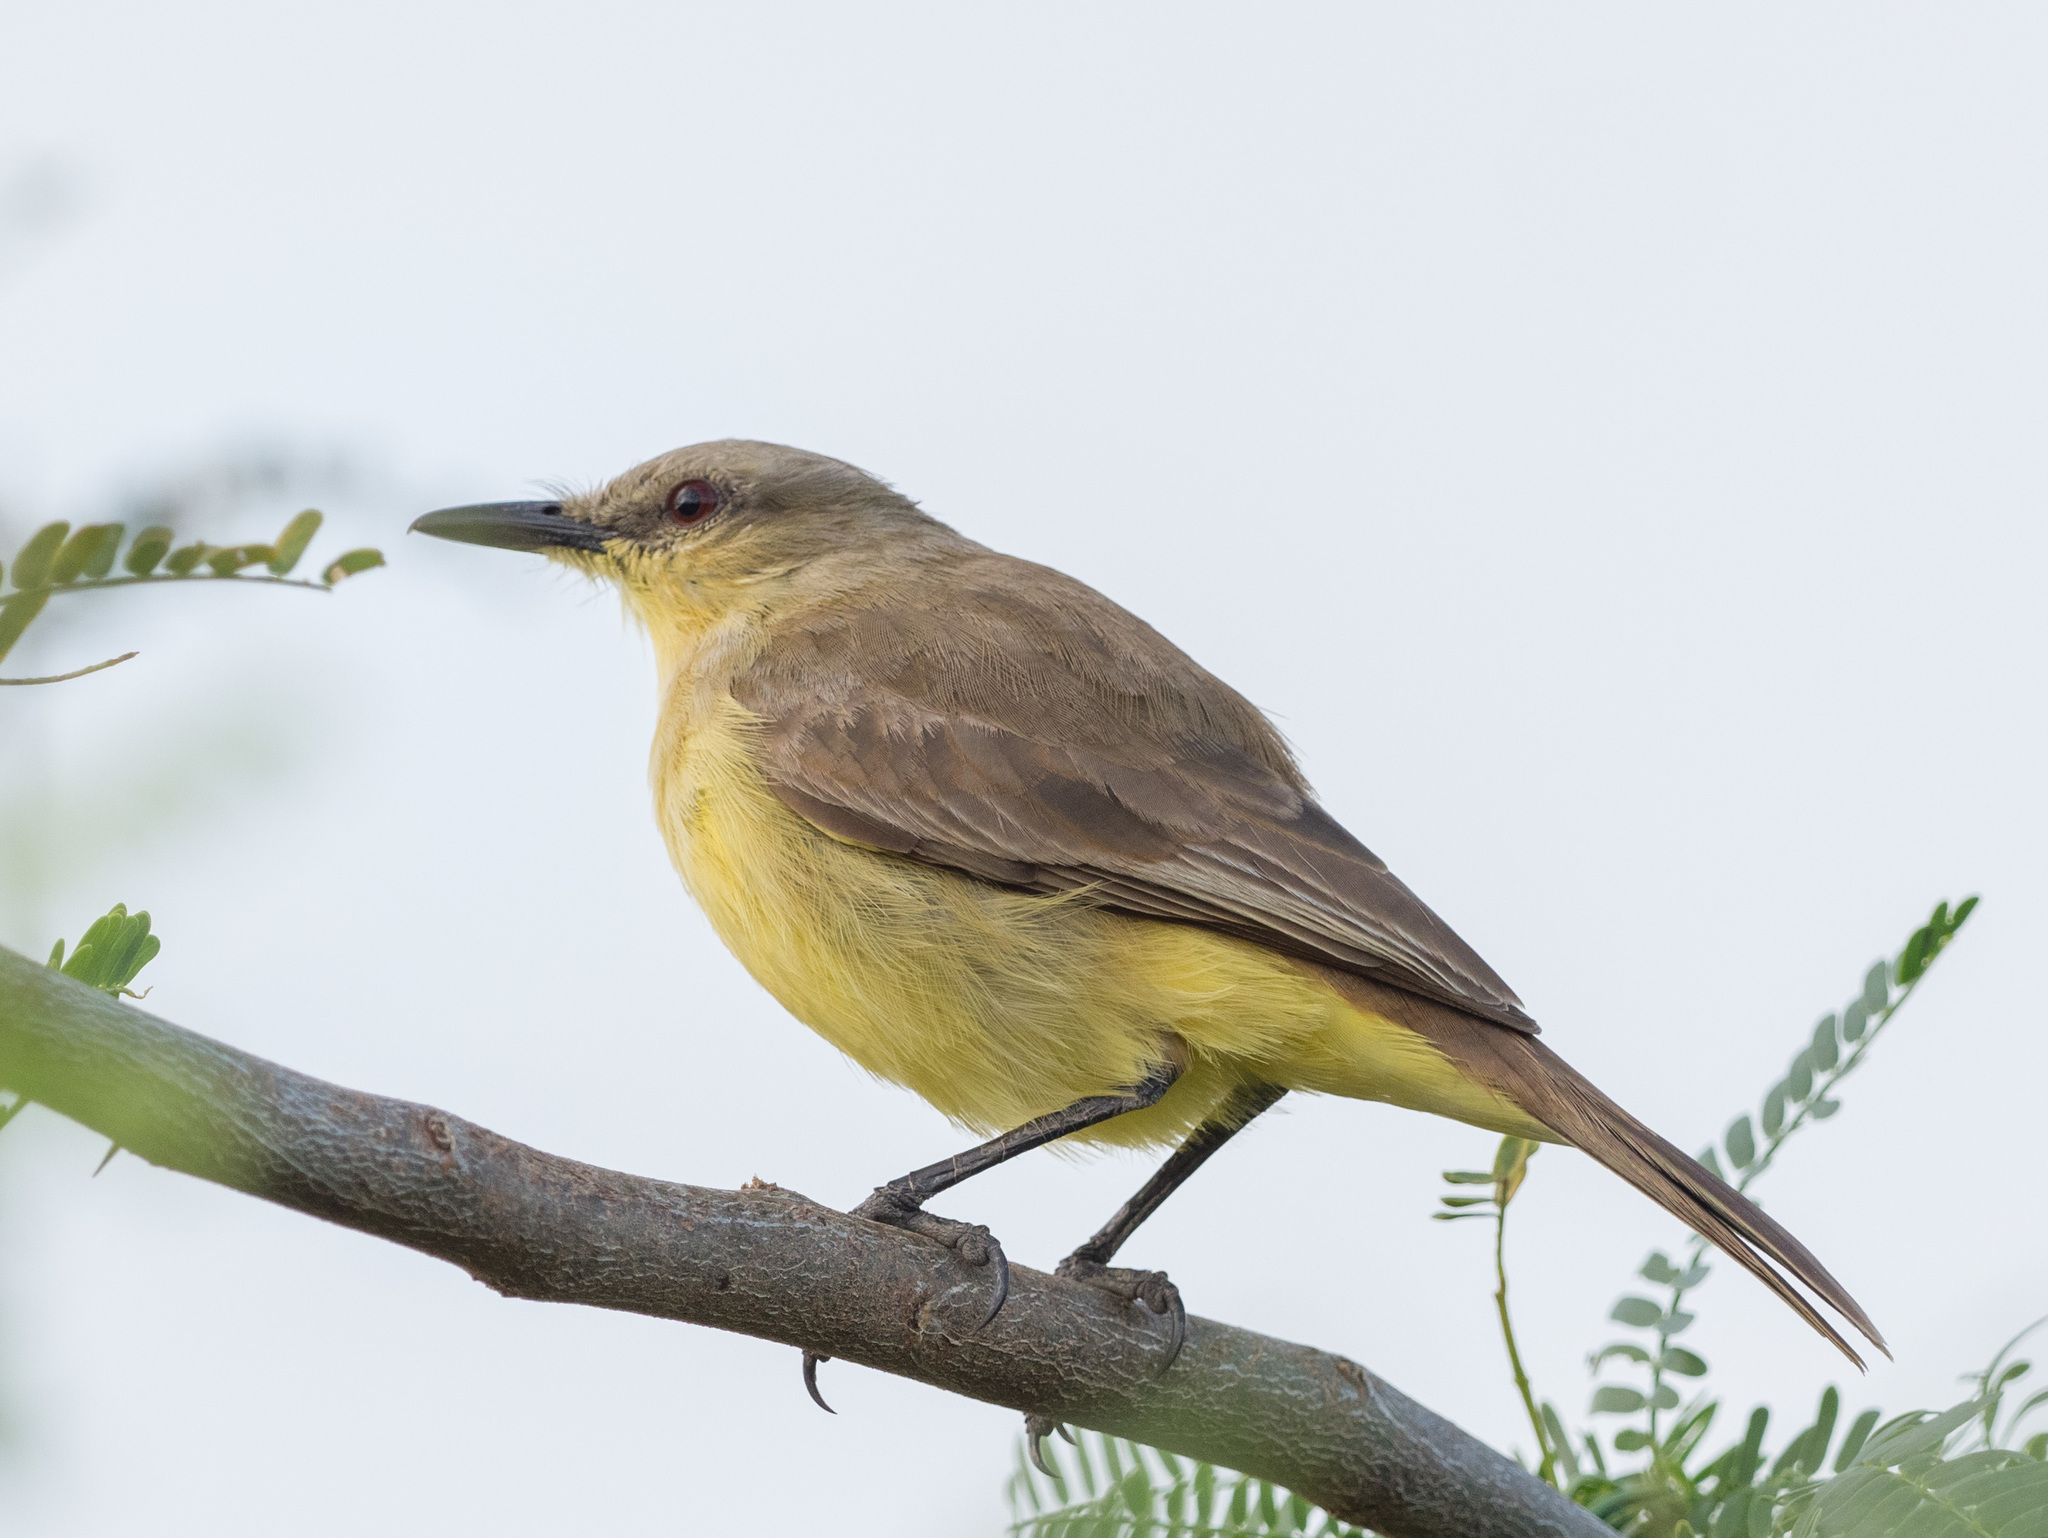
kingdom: Animalia
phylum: Chordata
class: Aves
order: Passeriformes
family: Tyrannidae
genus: Machetornis
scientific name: Machetornis rixosa
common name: Cattle tyrant
